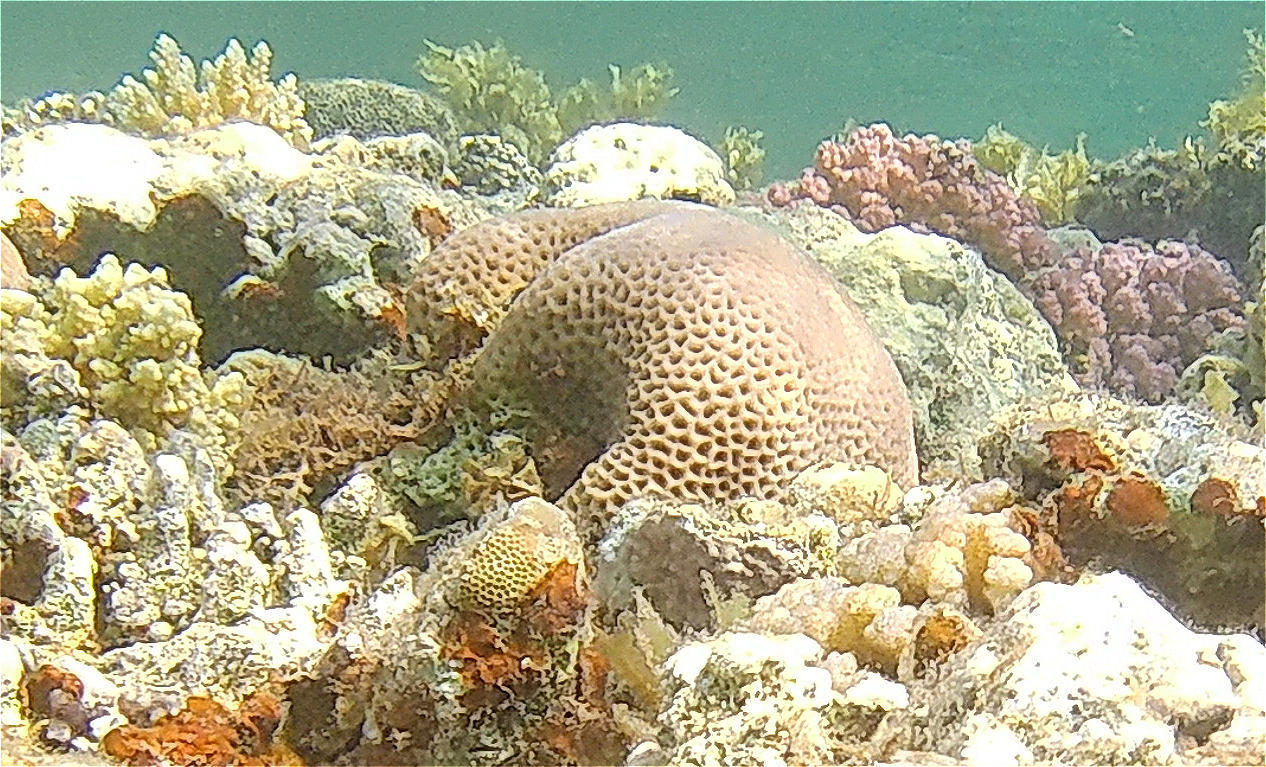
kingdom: Animalia
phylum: Cnidaria
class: Anthozoa
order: Scleractinia
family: Merulinidae
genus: Goniastrea
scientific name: Goniastrea pectinata
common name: Lesser star coral
